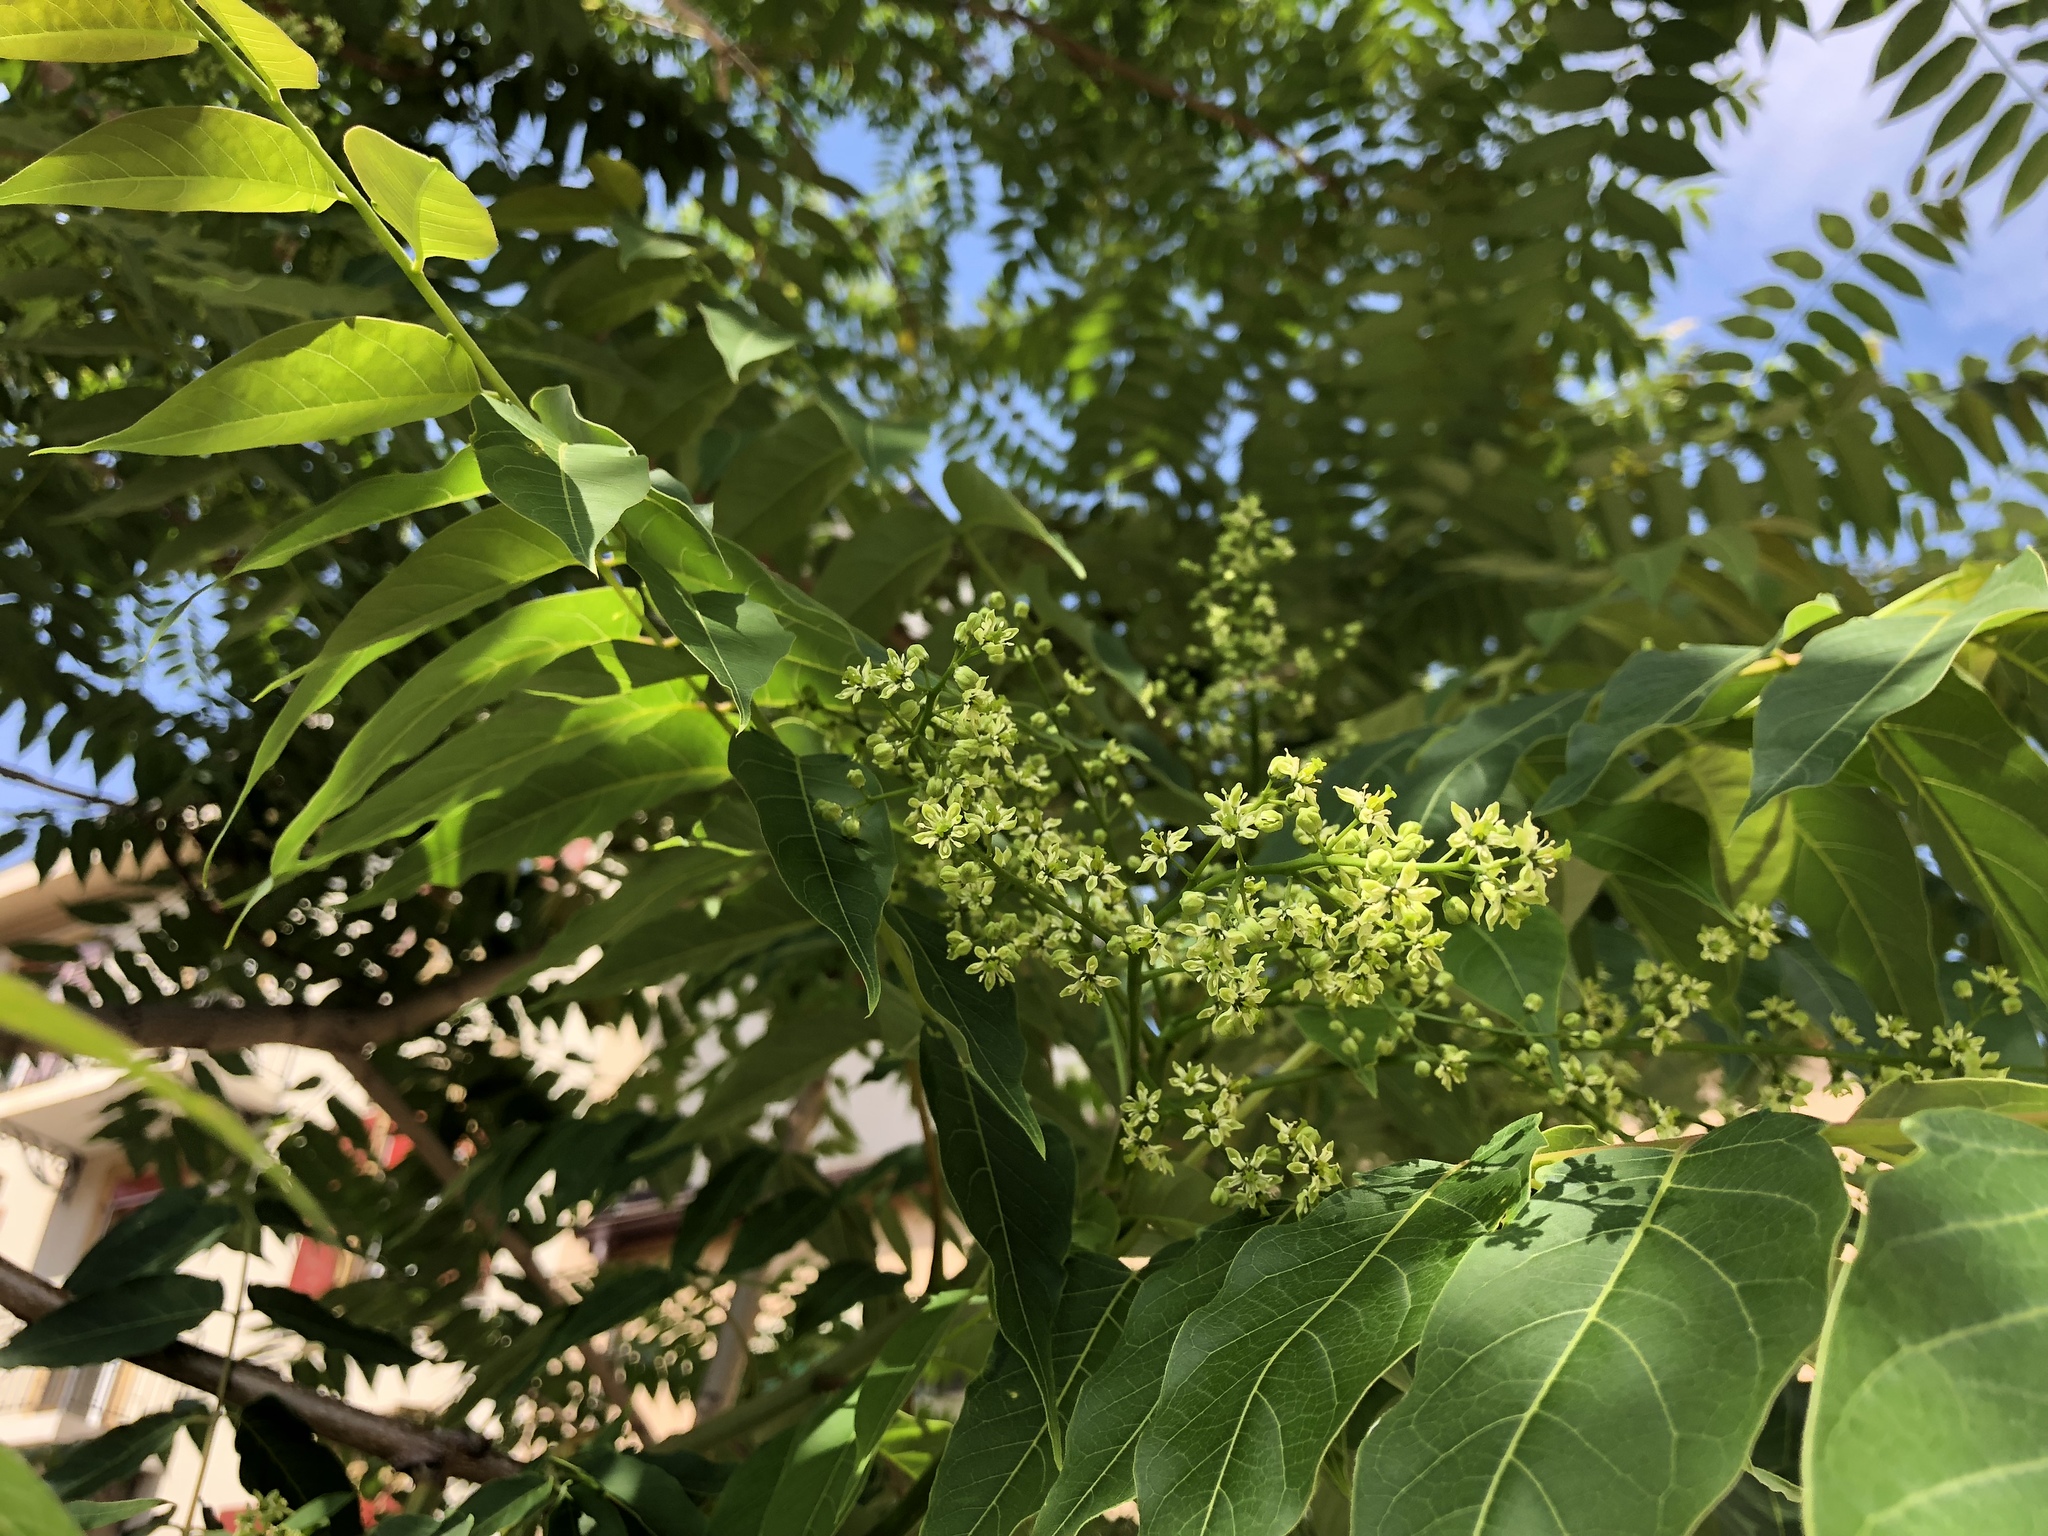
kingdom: Plantae
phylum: Tracheophyta
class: Magnoliopsida
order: Sapindales
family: Simaroubaceae
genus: Ailanthus
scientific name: Ailanthus altissima
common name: Tree-of-heaven
